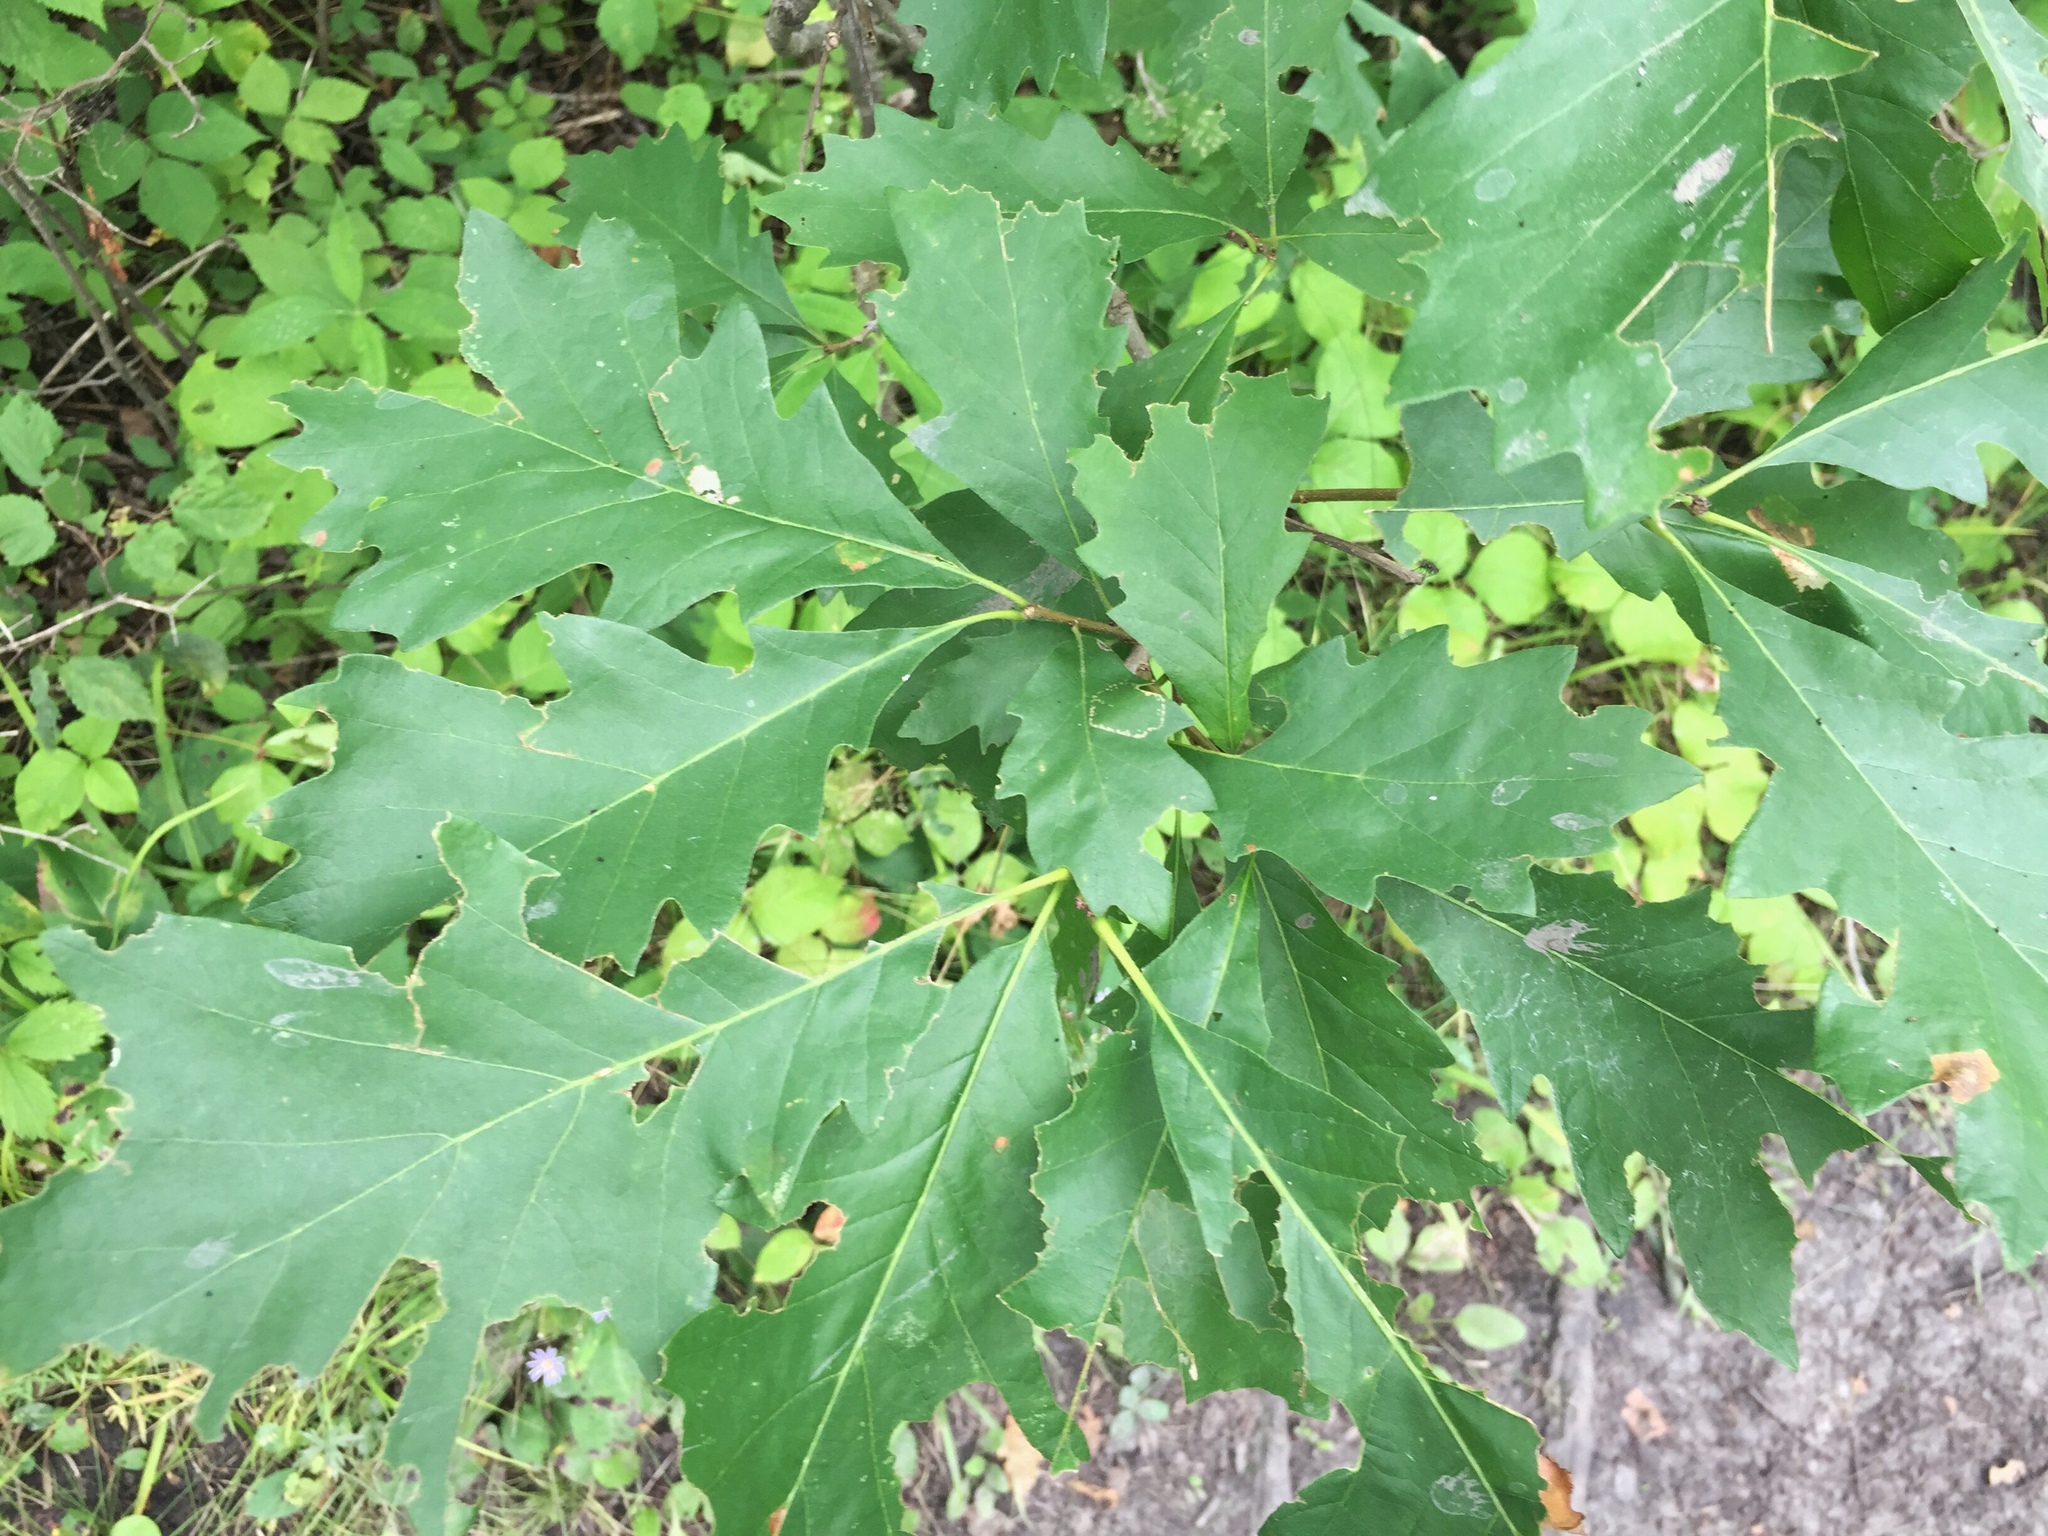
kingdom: Plantae
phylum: Tracheophyta
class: Magnoliopsida
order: Fagales
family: Fagaceae
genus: Quercus
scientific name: Quercus macrocarpa
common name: Bur oak
